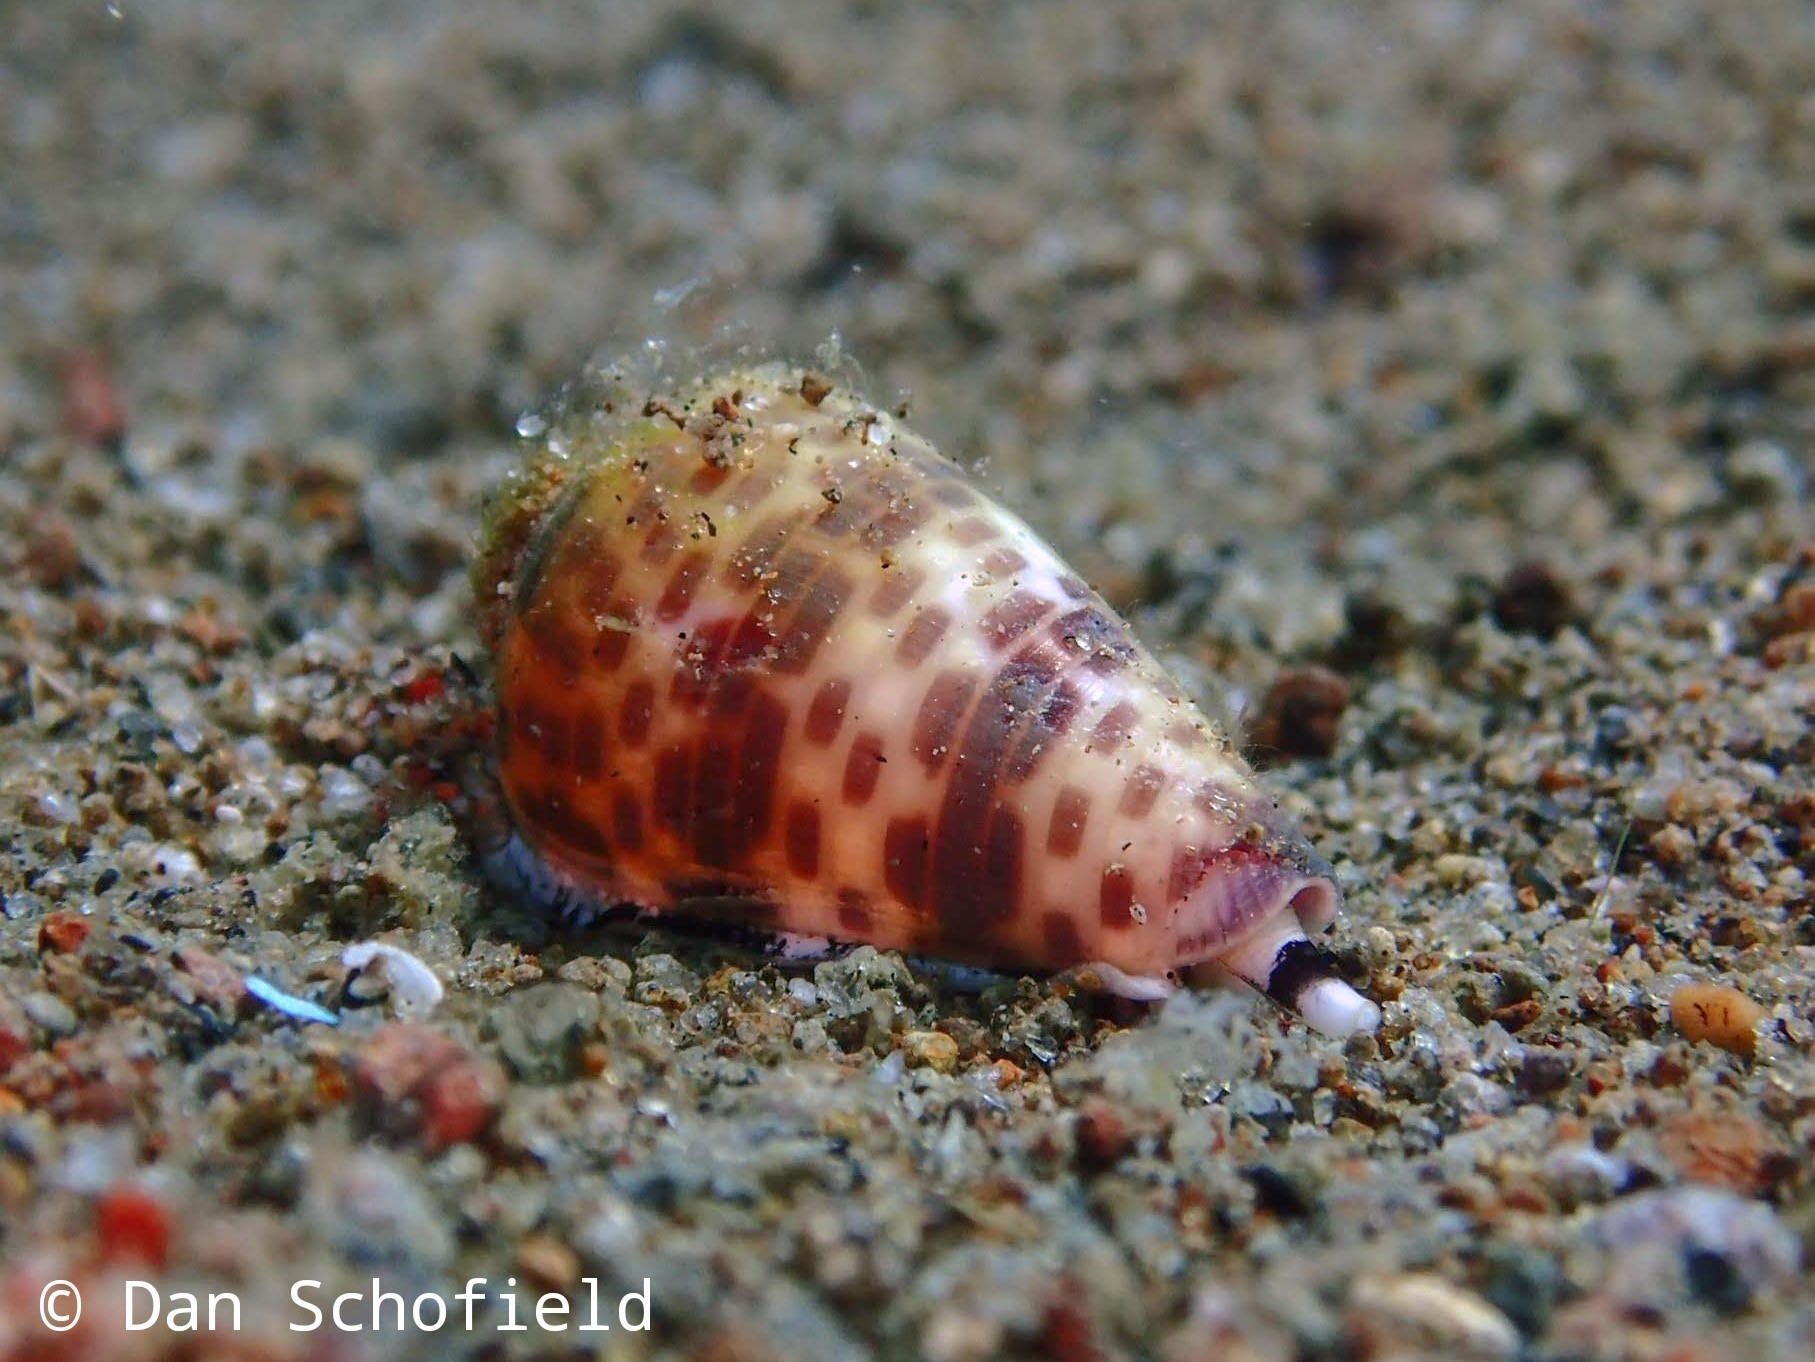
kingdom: Animalia
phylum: Mollusca
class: Gastropoda
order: Neogastropoda
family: Conidae
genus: Conus
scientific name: Conus tessulatus
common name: Tessellate cone
